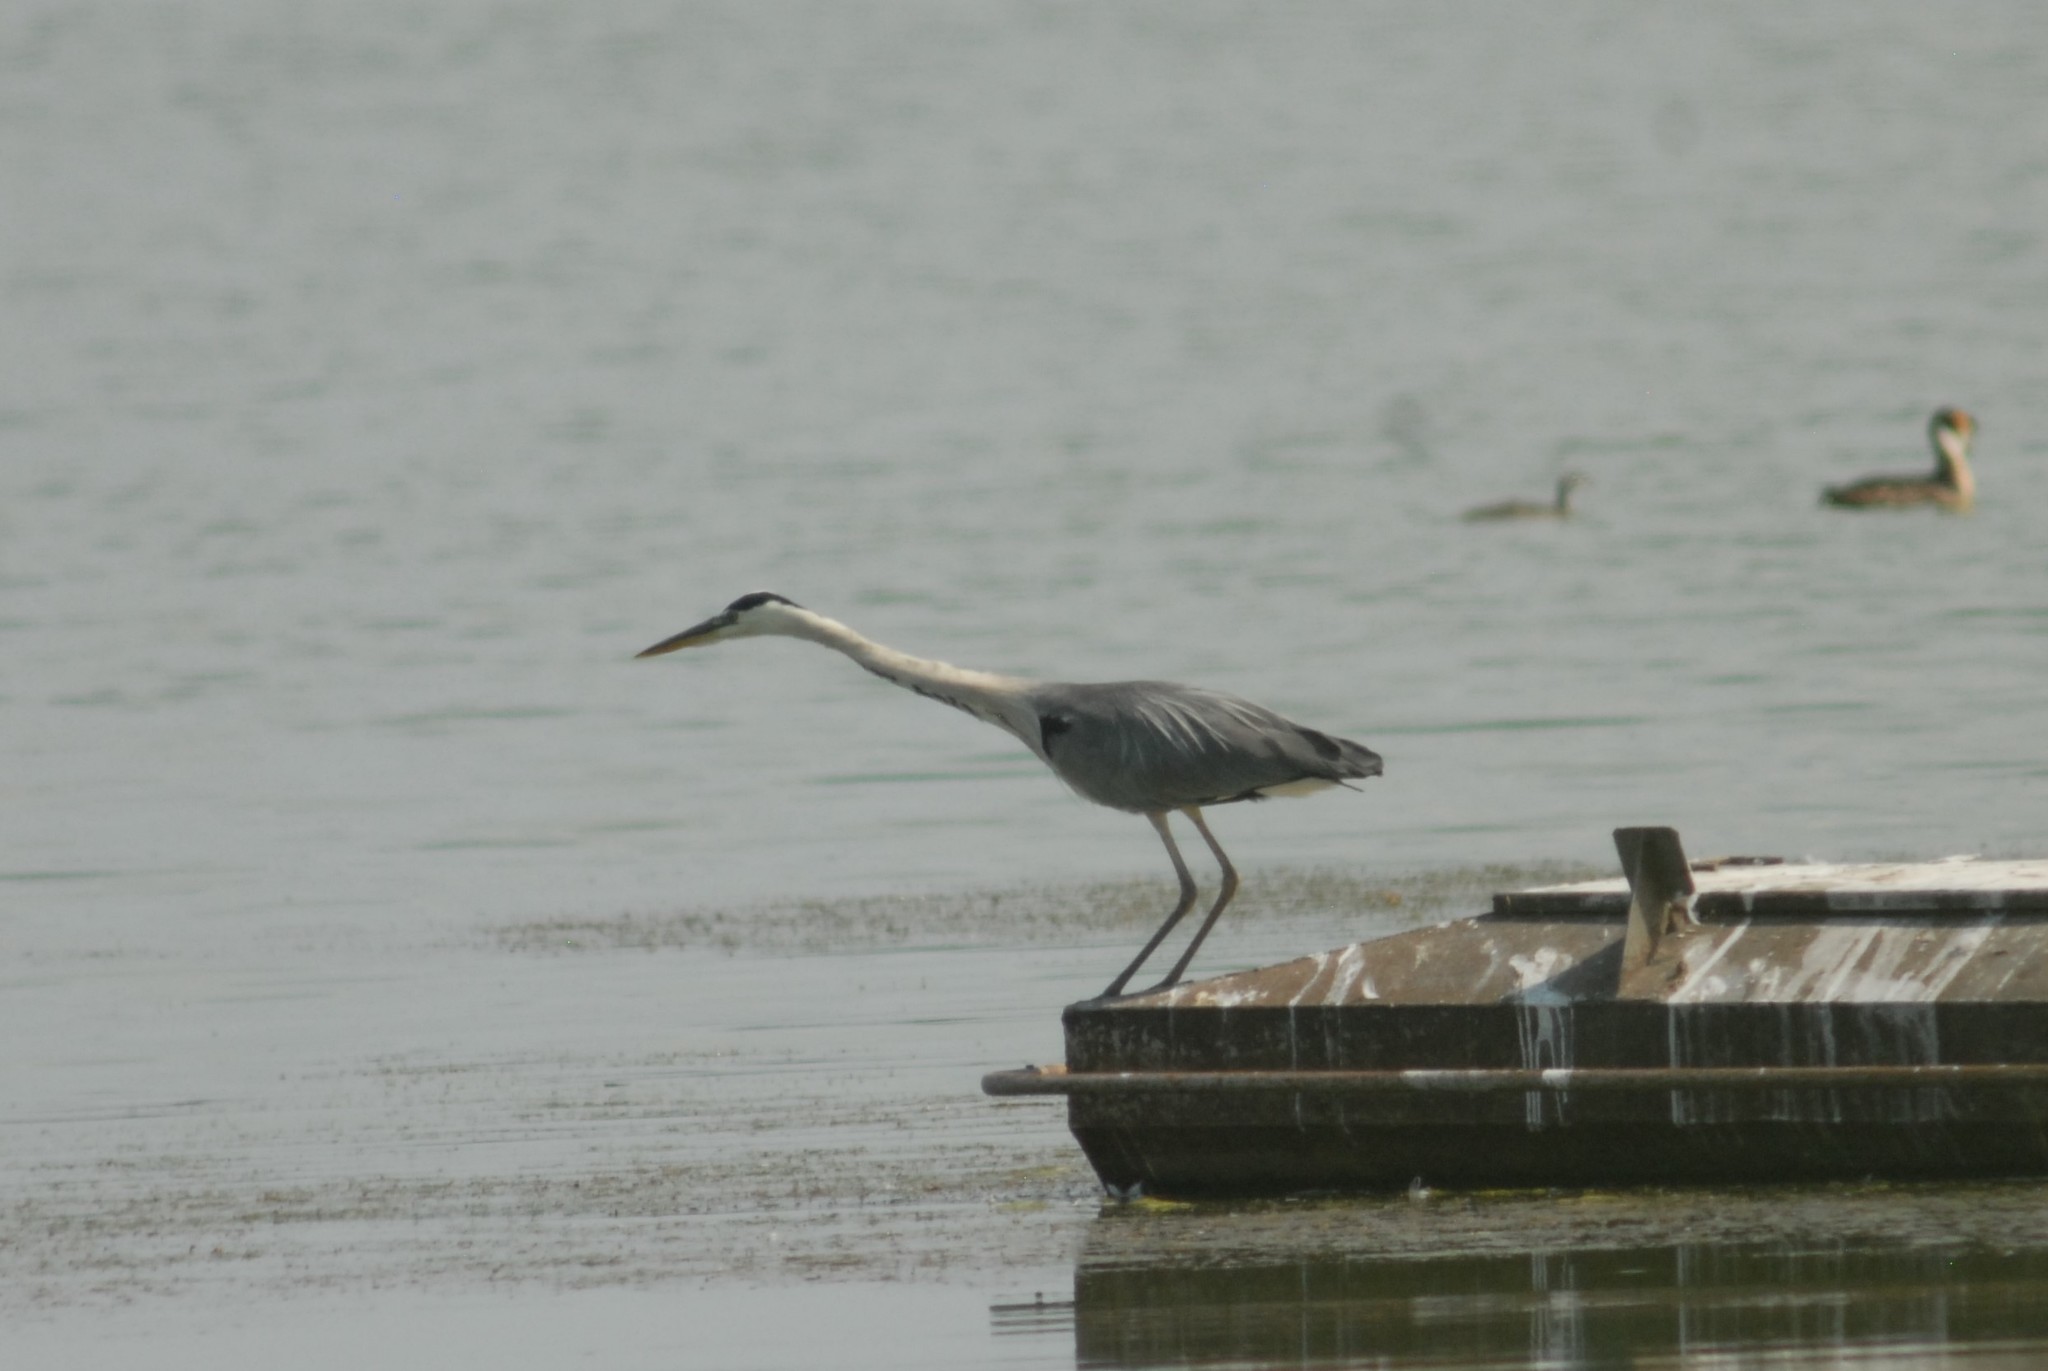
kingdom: Animalia
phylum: Chordata
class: Aves
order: Pelecaniformes
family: Ardeidae
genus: Ardea
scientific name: Ardea cinerea
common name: Grey heron
